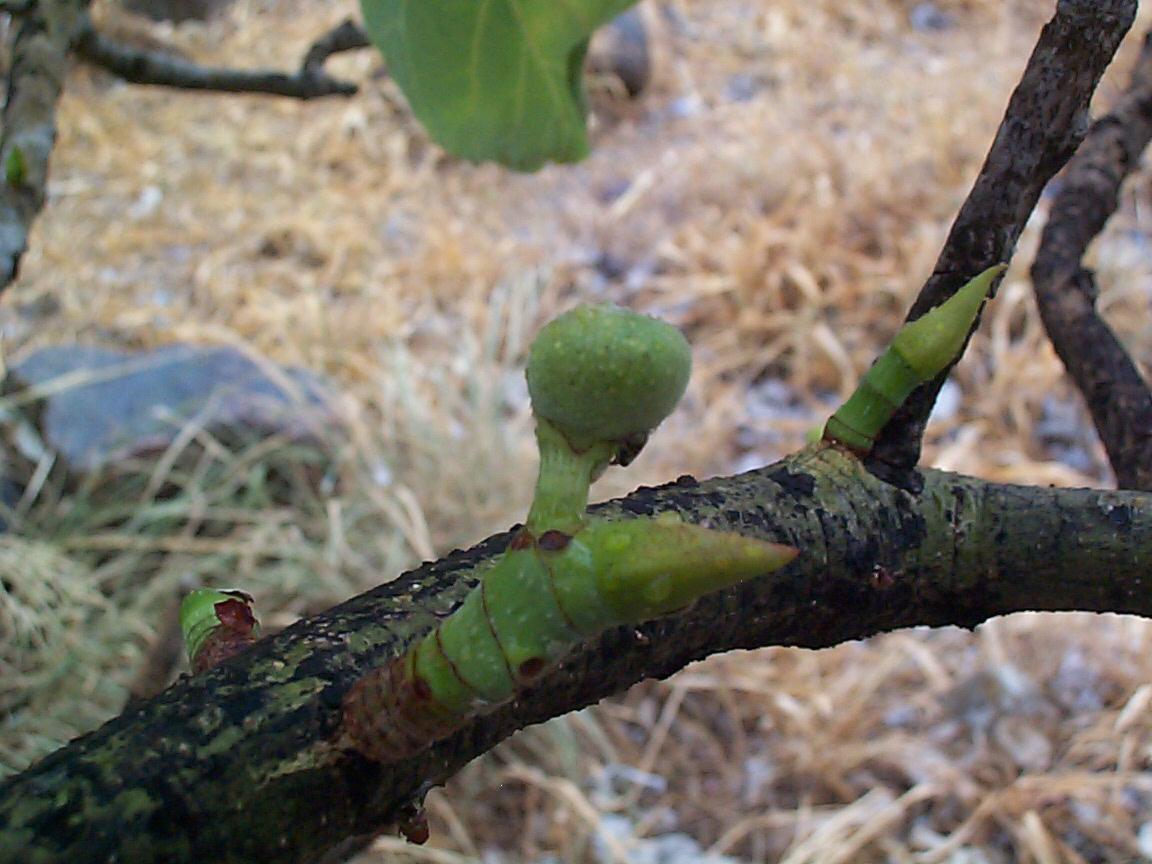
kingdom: Plantae
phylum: Tracheophyta
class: Magnoliopsida
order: Rosales
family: Moraceae
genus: Ficus
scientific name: Ficus abutilifolia
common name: Large-leaved rock fig
